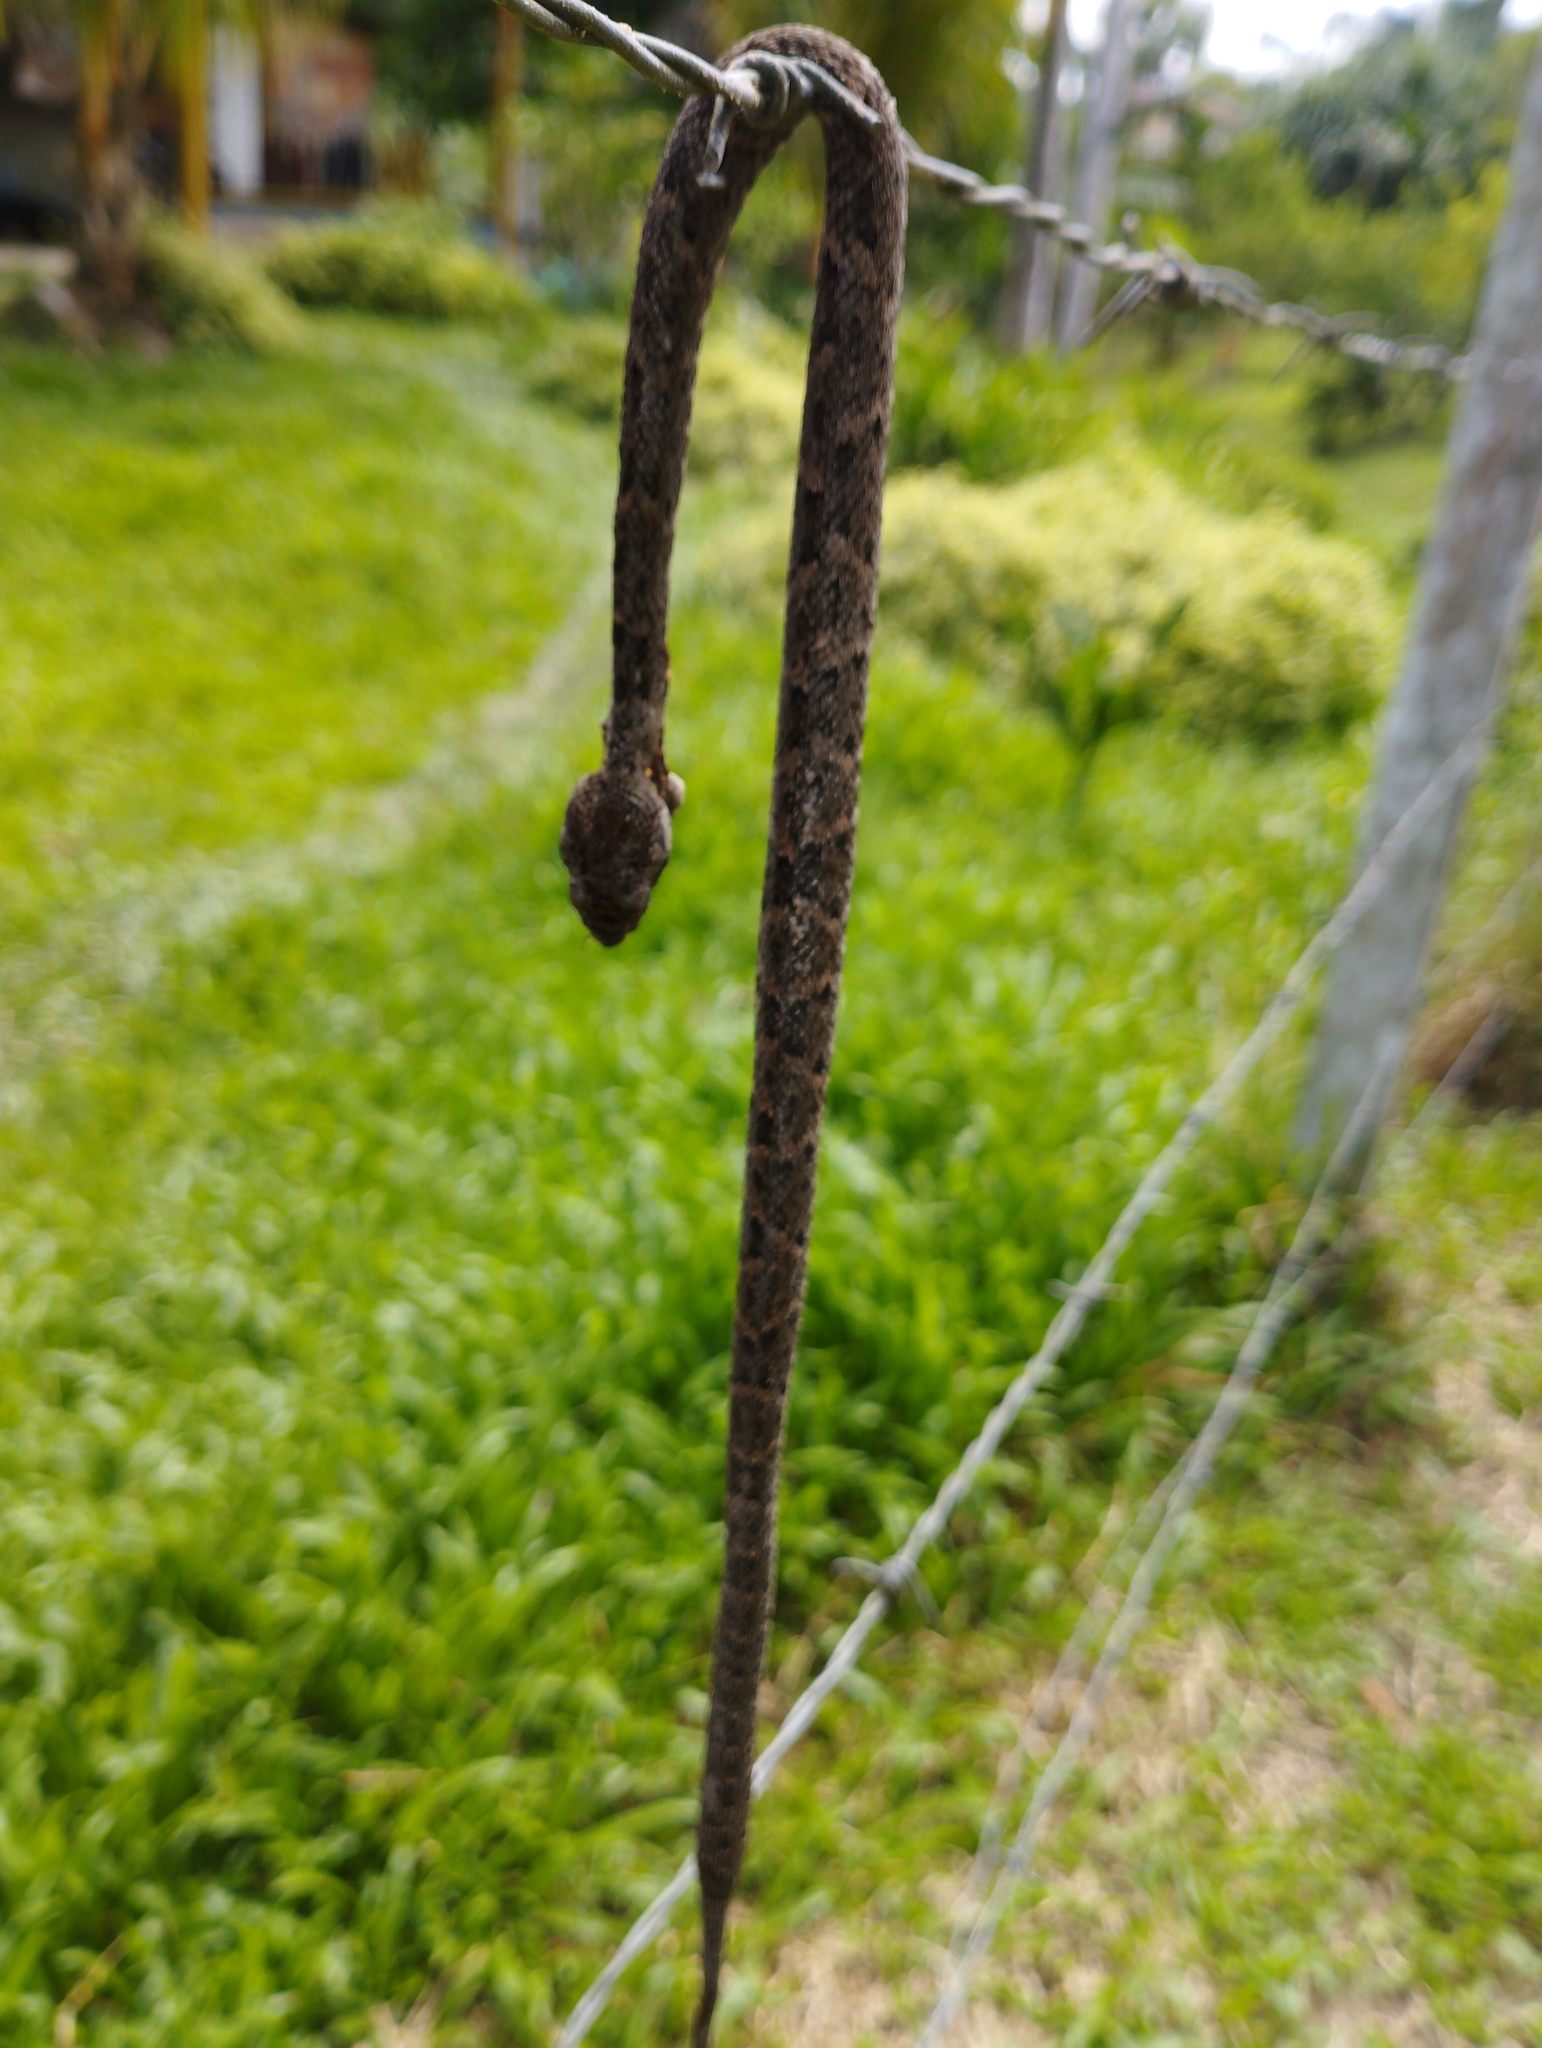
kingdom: Animalia
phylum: Chordata
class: Squamata
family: Viperidae
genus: Bothrops
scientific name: Bothrops atrox
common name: Common lancehead
